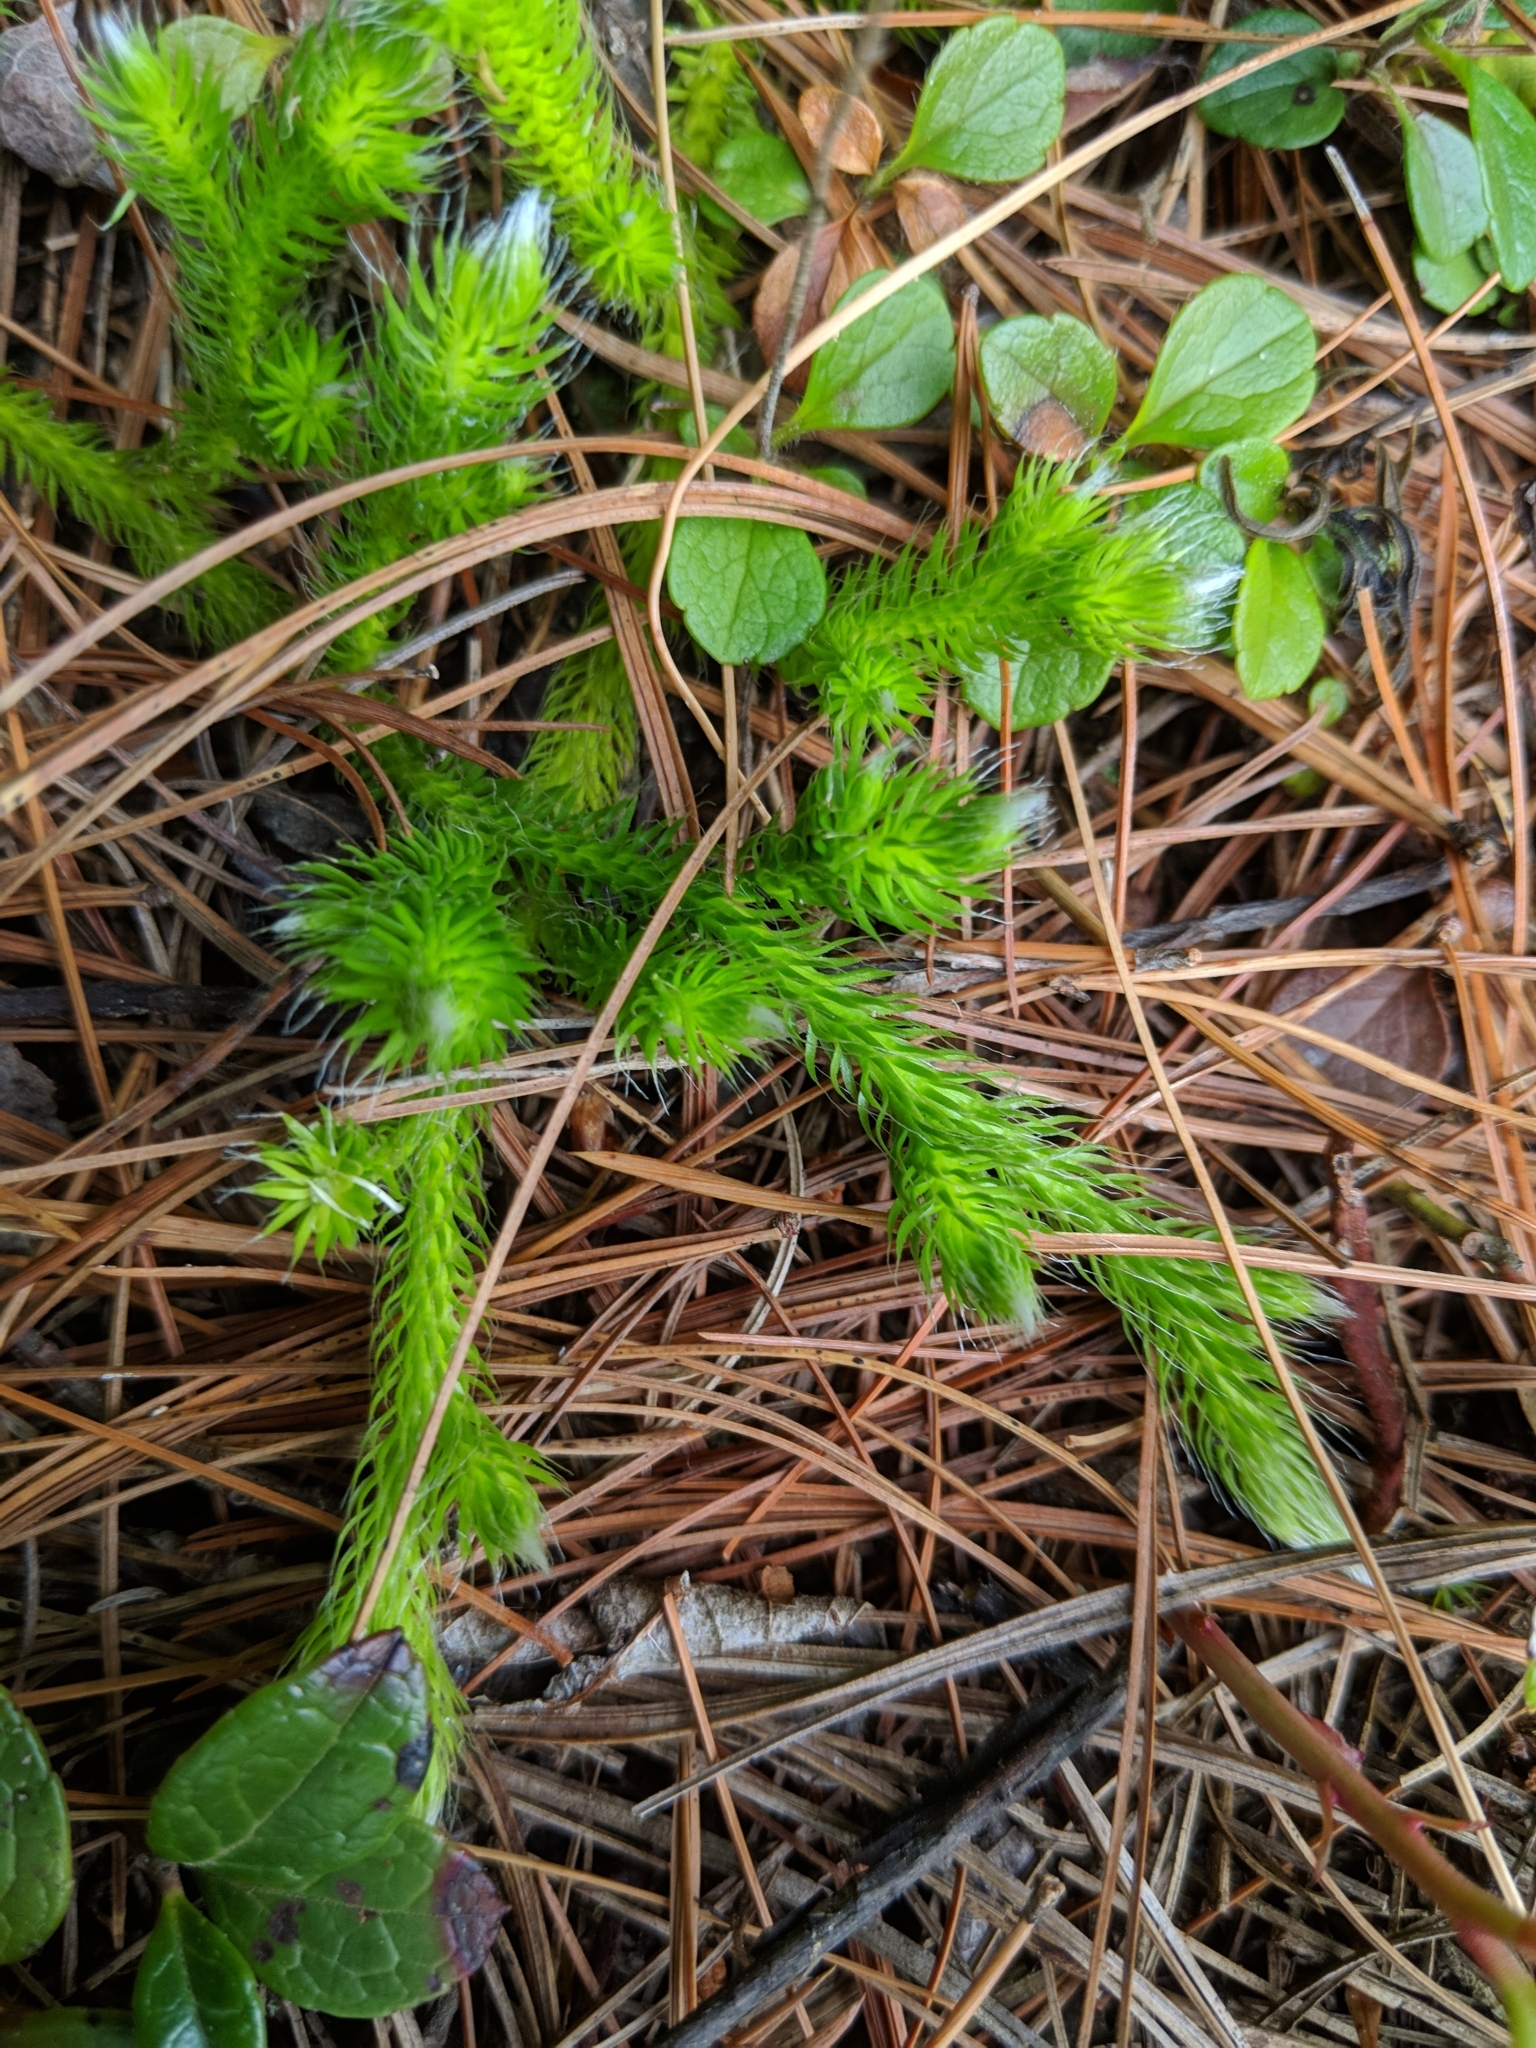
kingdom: Plantae
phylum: Tracheophyta
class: Lycopodiopsida
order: Lycopodiales
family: Lycopodiaceae
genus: Lycopodium
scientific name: Lycopodium clavatum
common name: Stag's-horn clubmoss
